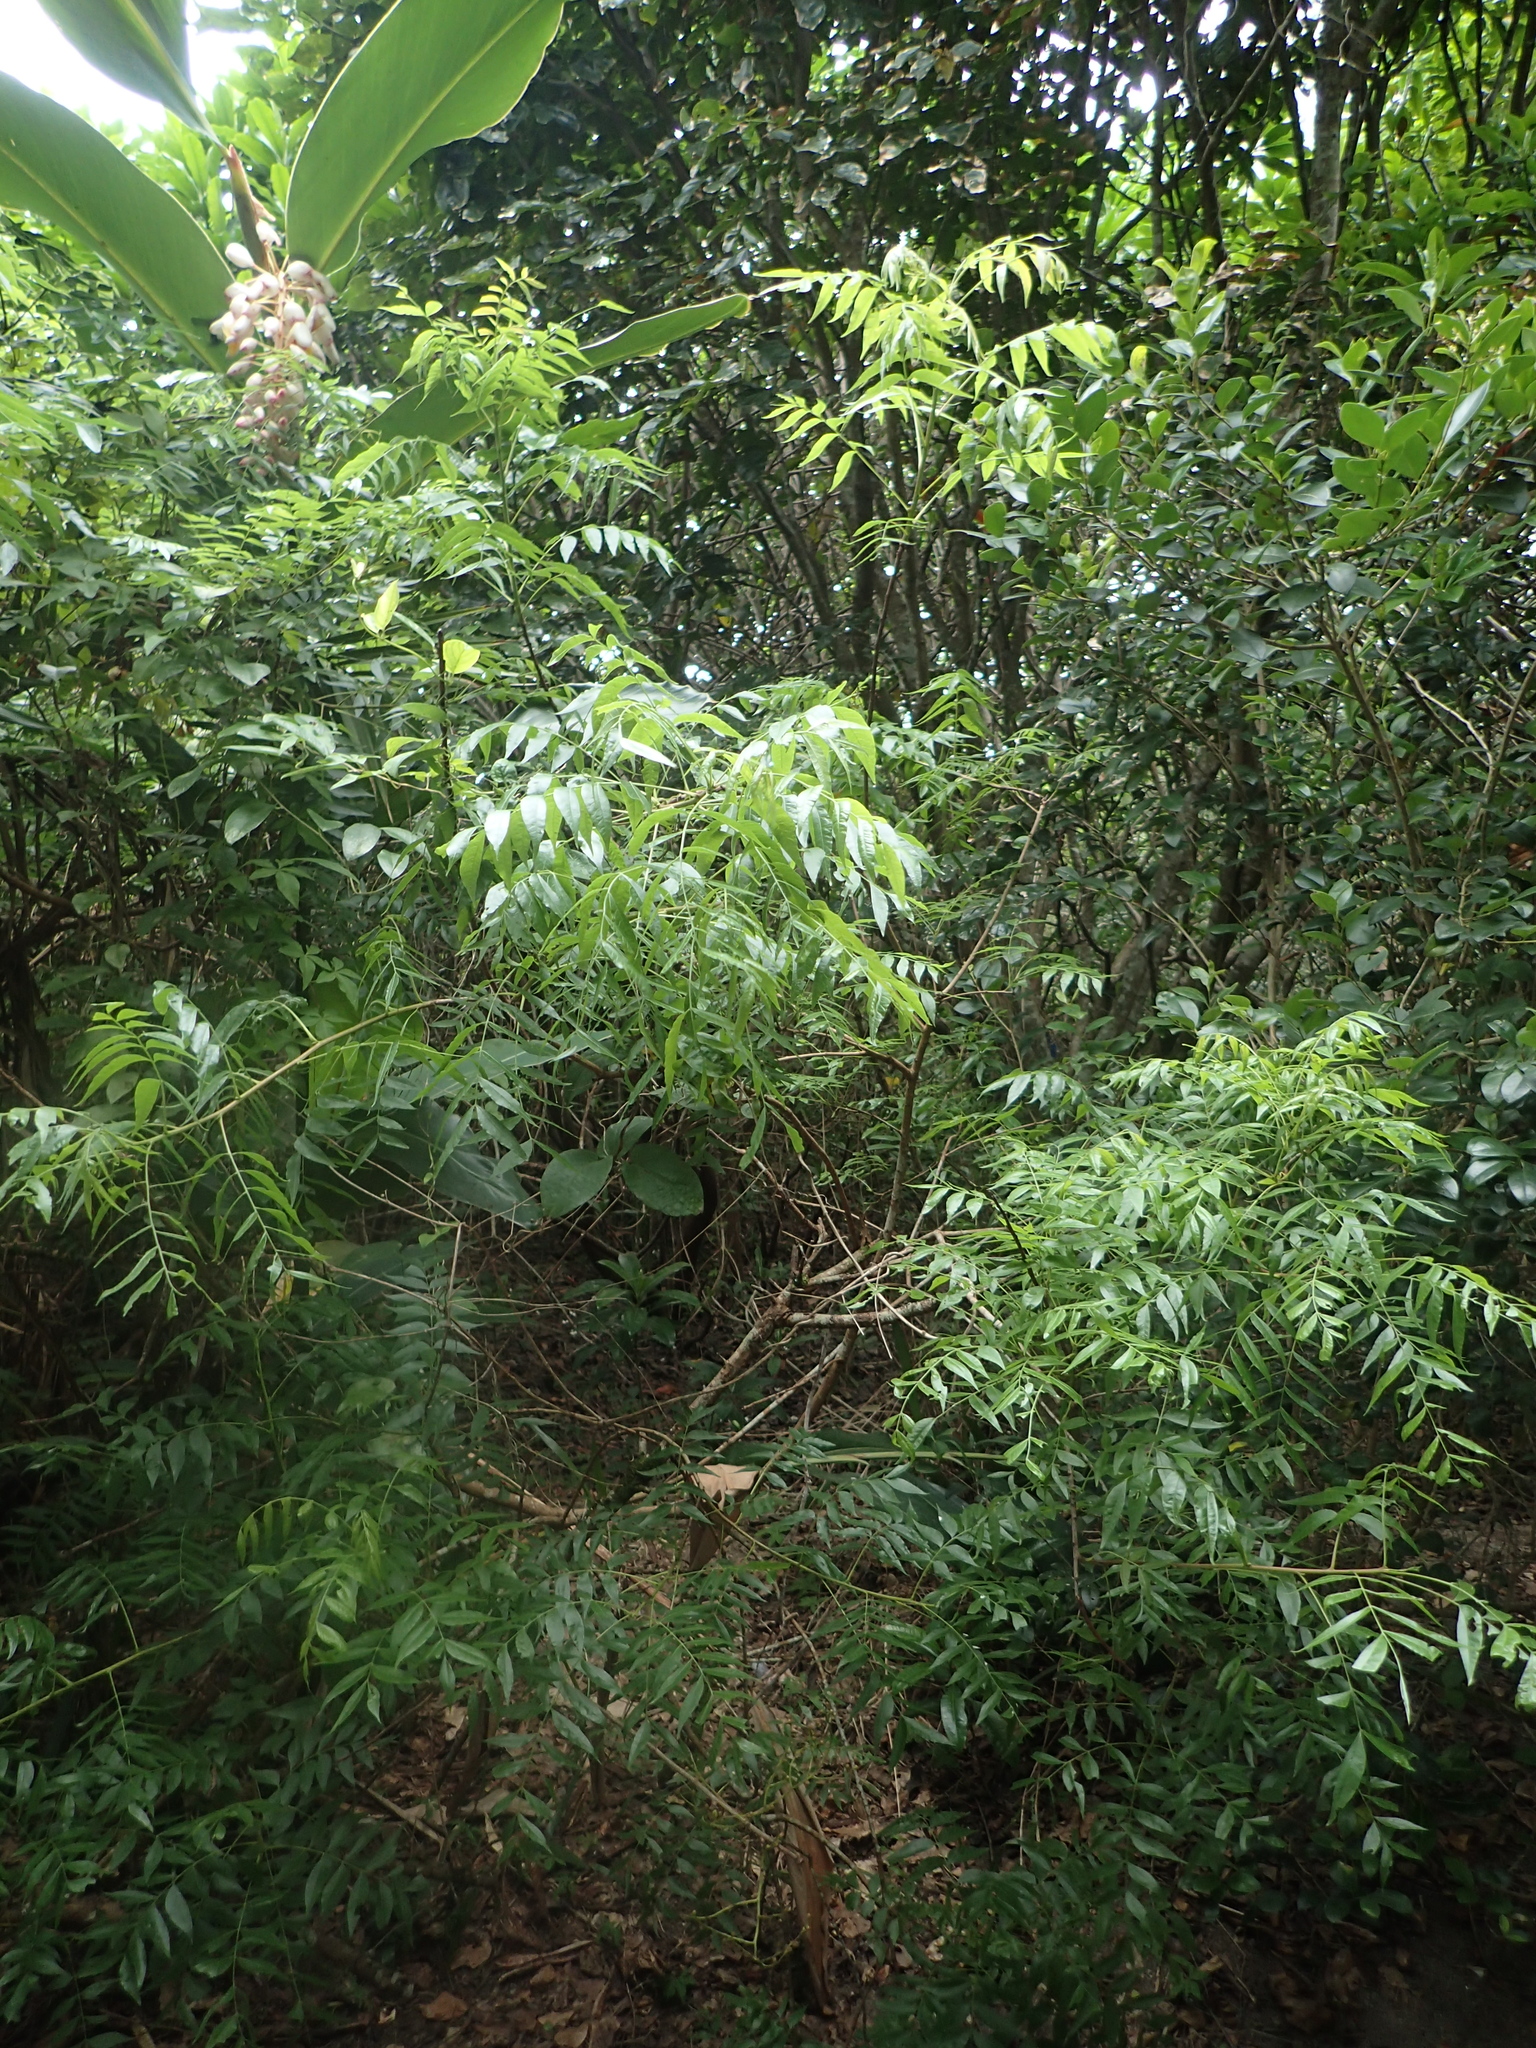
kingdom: Plantae
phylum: Tracheophyta
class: Magnoliopsida
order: Sapindales
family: Anacardiaceae
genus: Pistacia
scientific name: Pistacia chinensis
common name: Chinese pistache
